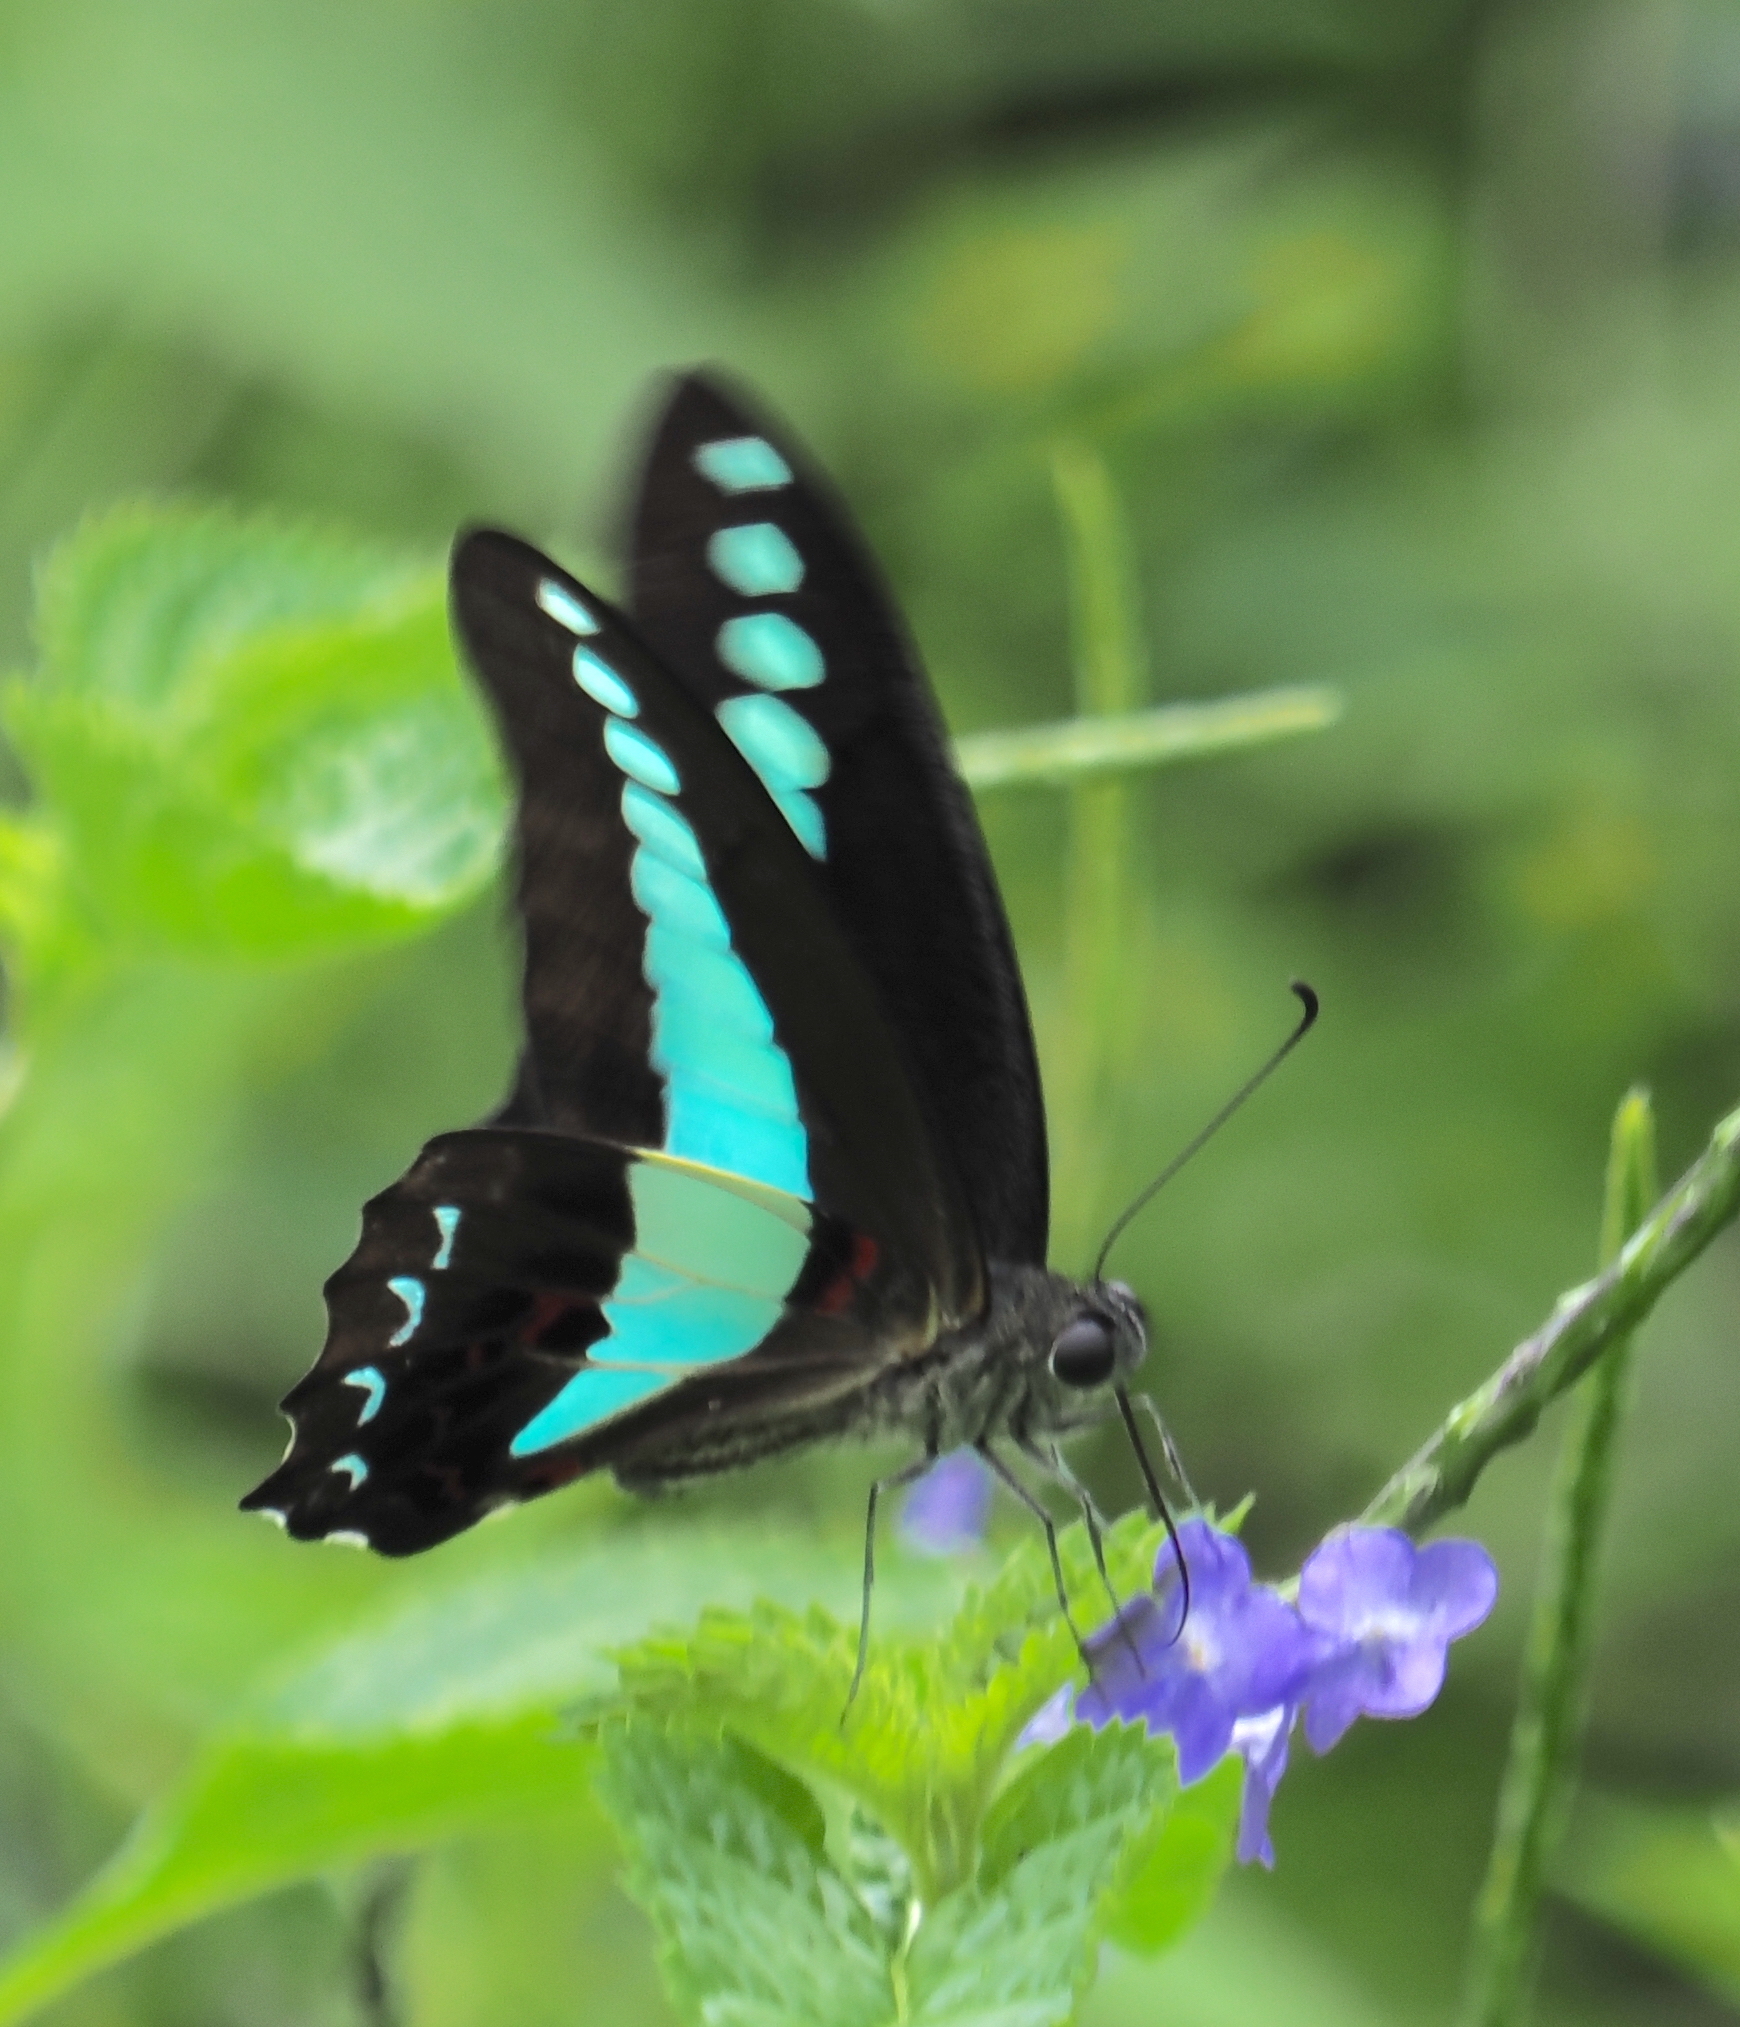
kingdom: Fungi
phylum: Ascomycota
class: Sordariomycetes
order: Microascales
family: Microascaceae
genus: Graphium
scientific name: Graphium sarpedon
